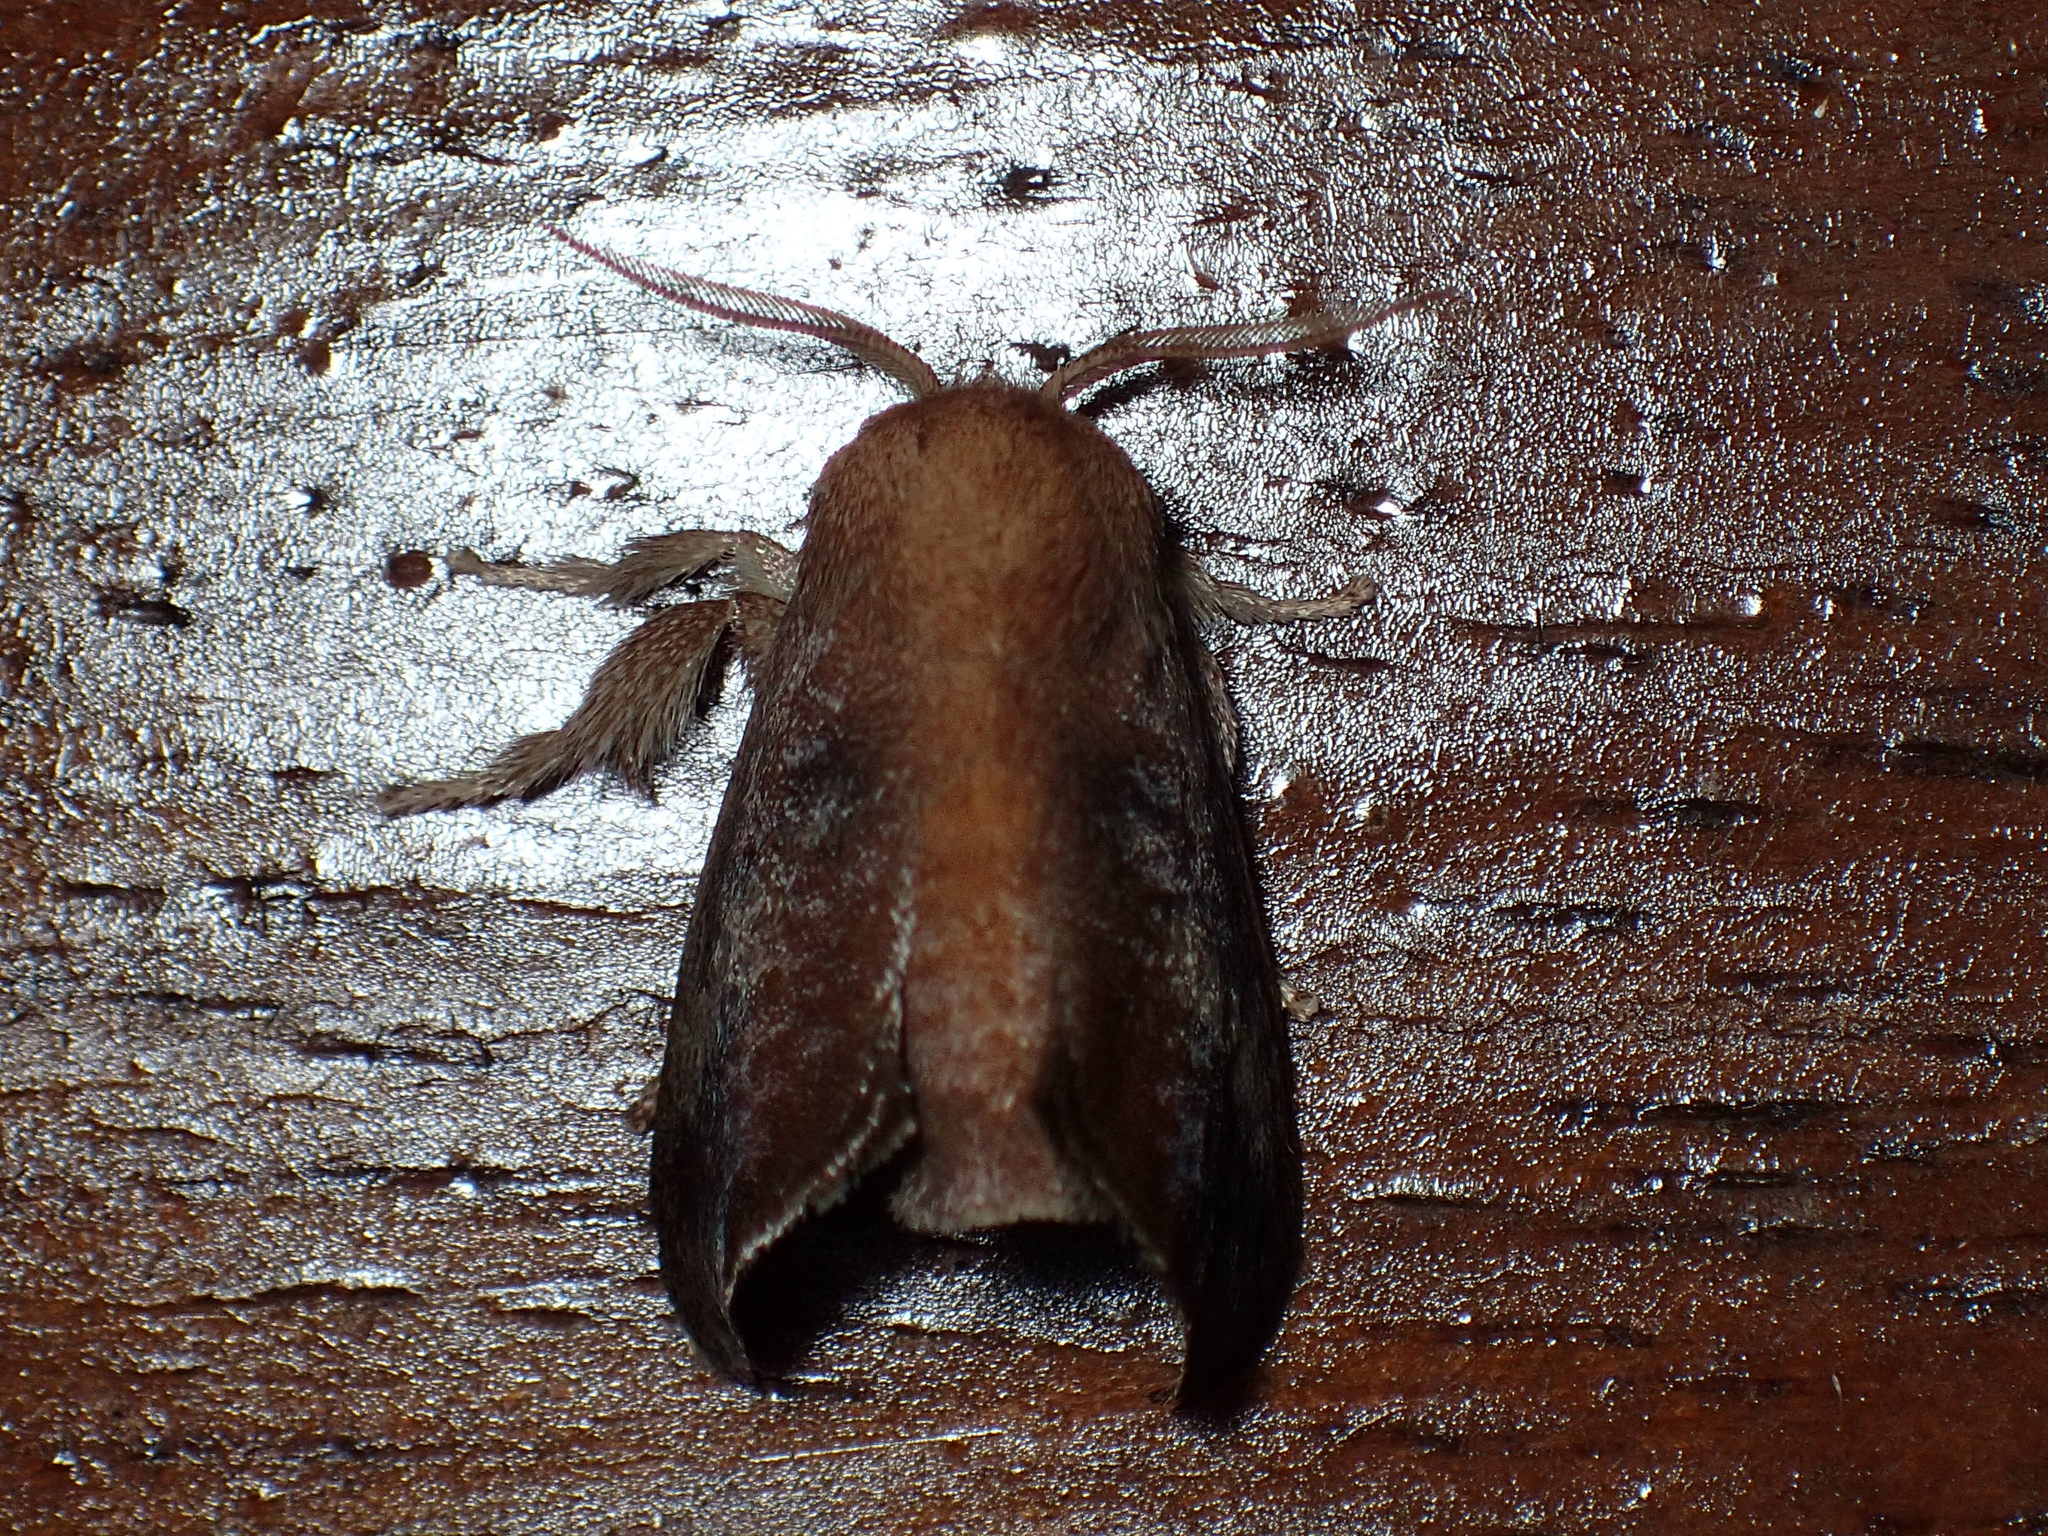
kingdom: Animalia
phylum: Arthropoda
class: Insecta
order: Lepidoptera
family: Limacodidae
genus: Isa
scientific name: Isa textula
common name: Crowned slug moth
